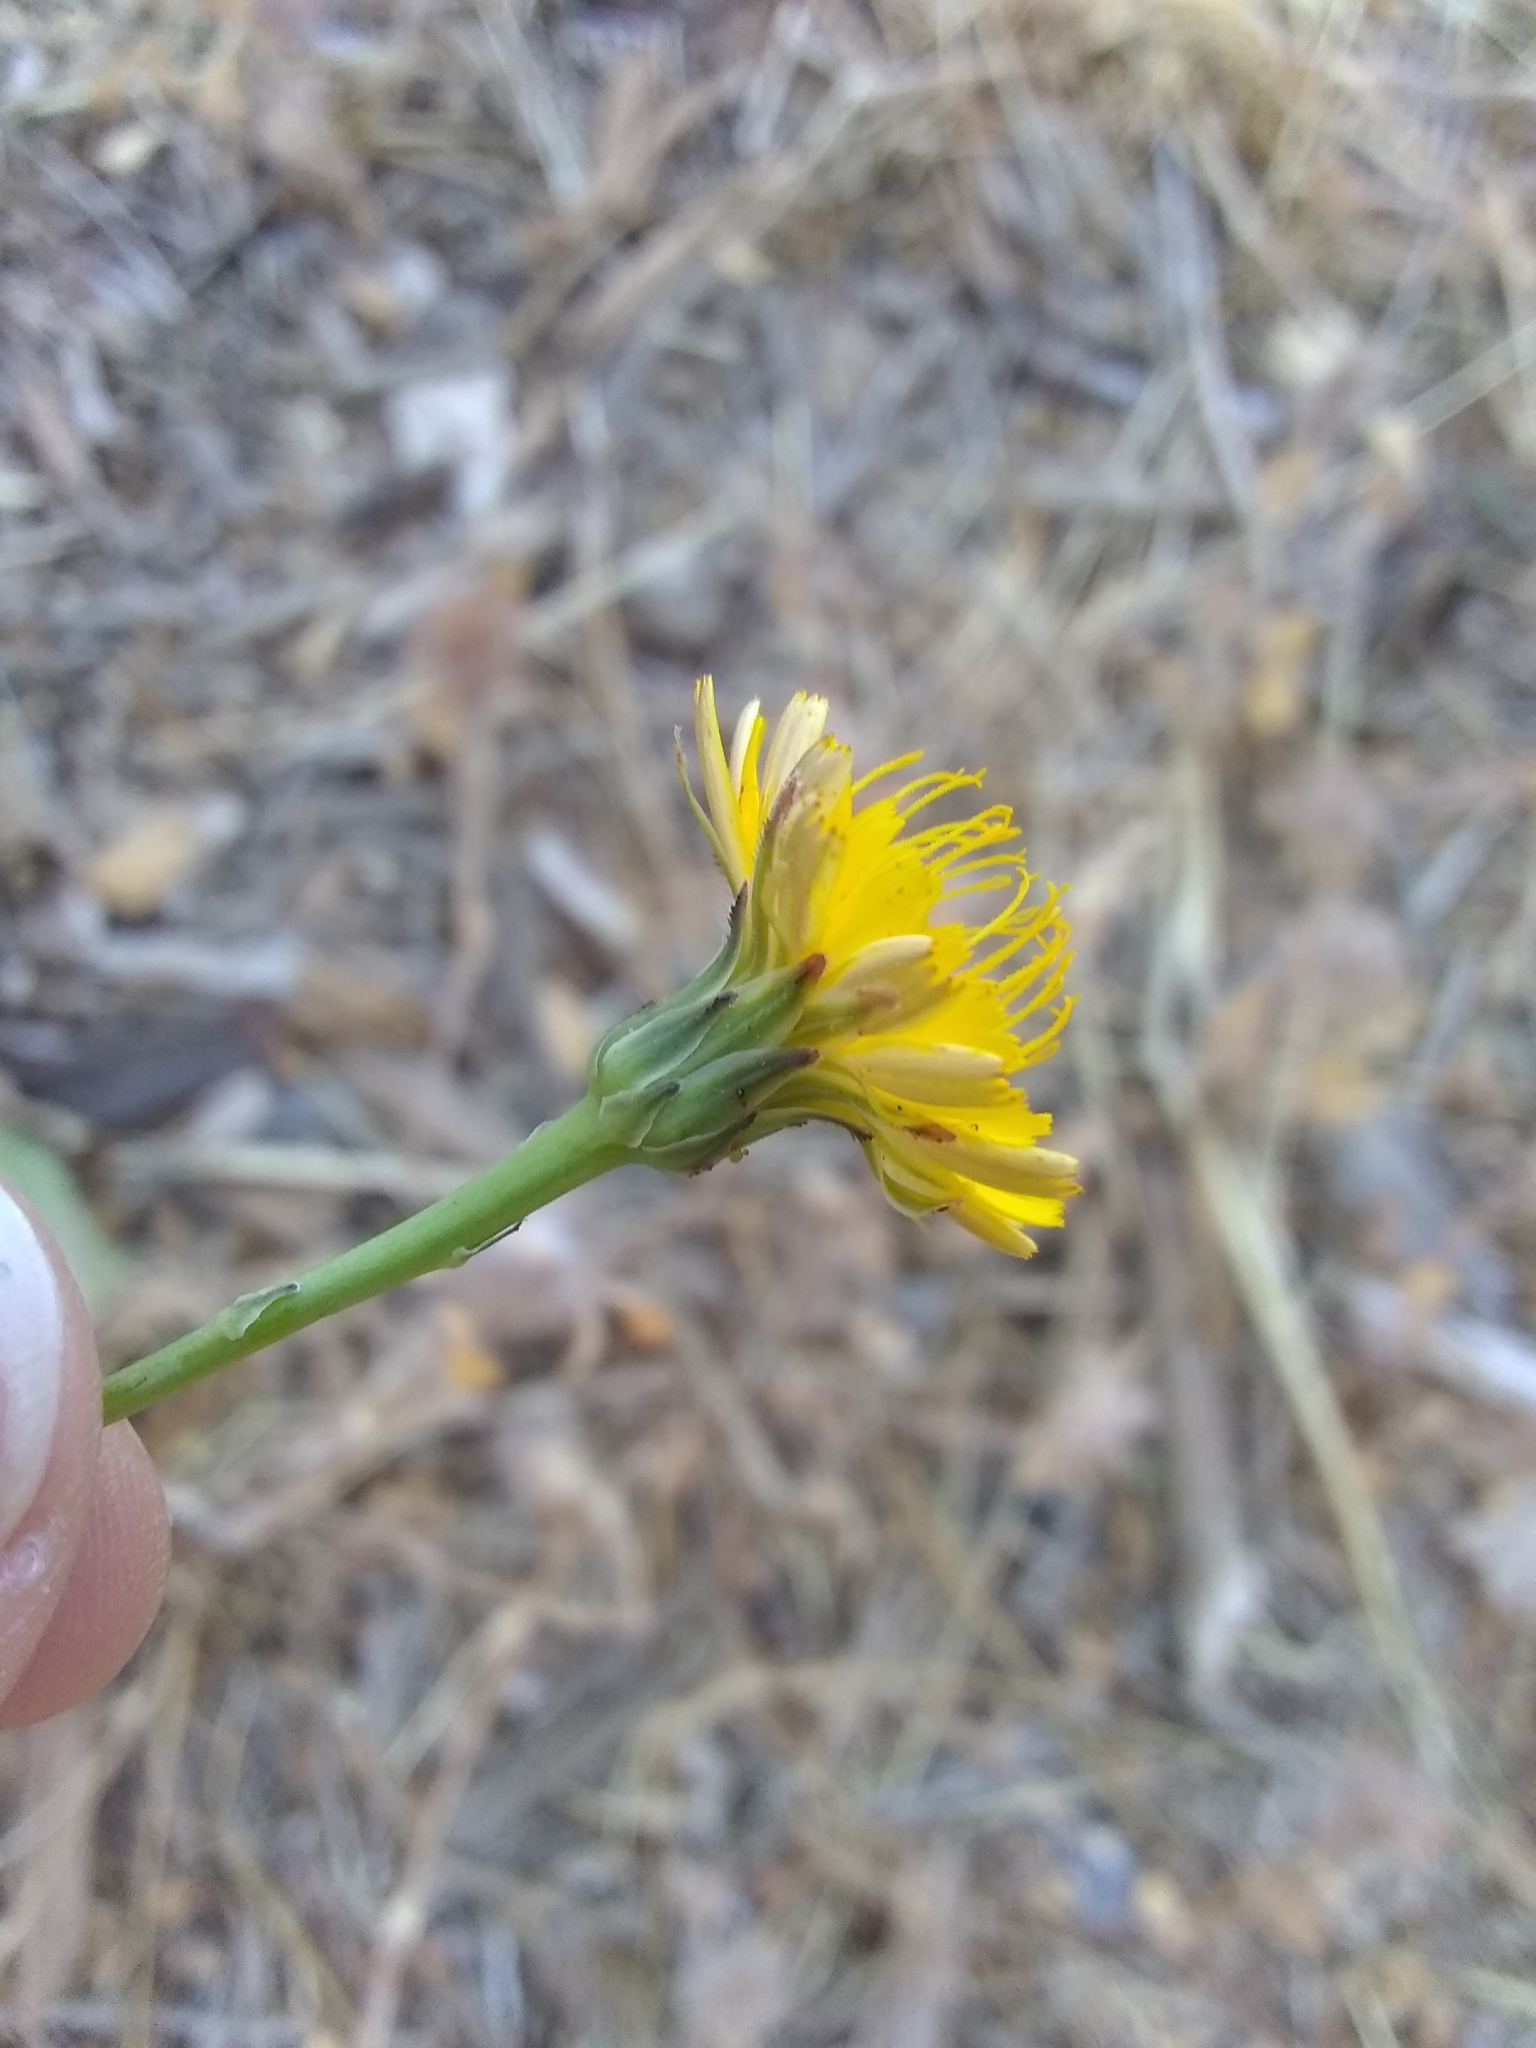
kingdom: Plantae
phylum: Tracheophyta
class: Magnoliopsida
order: Asterales
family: Asteraceae
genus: Hypochaeris
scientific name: Hypochaeris radicata
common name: Flatweed
